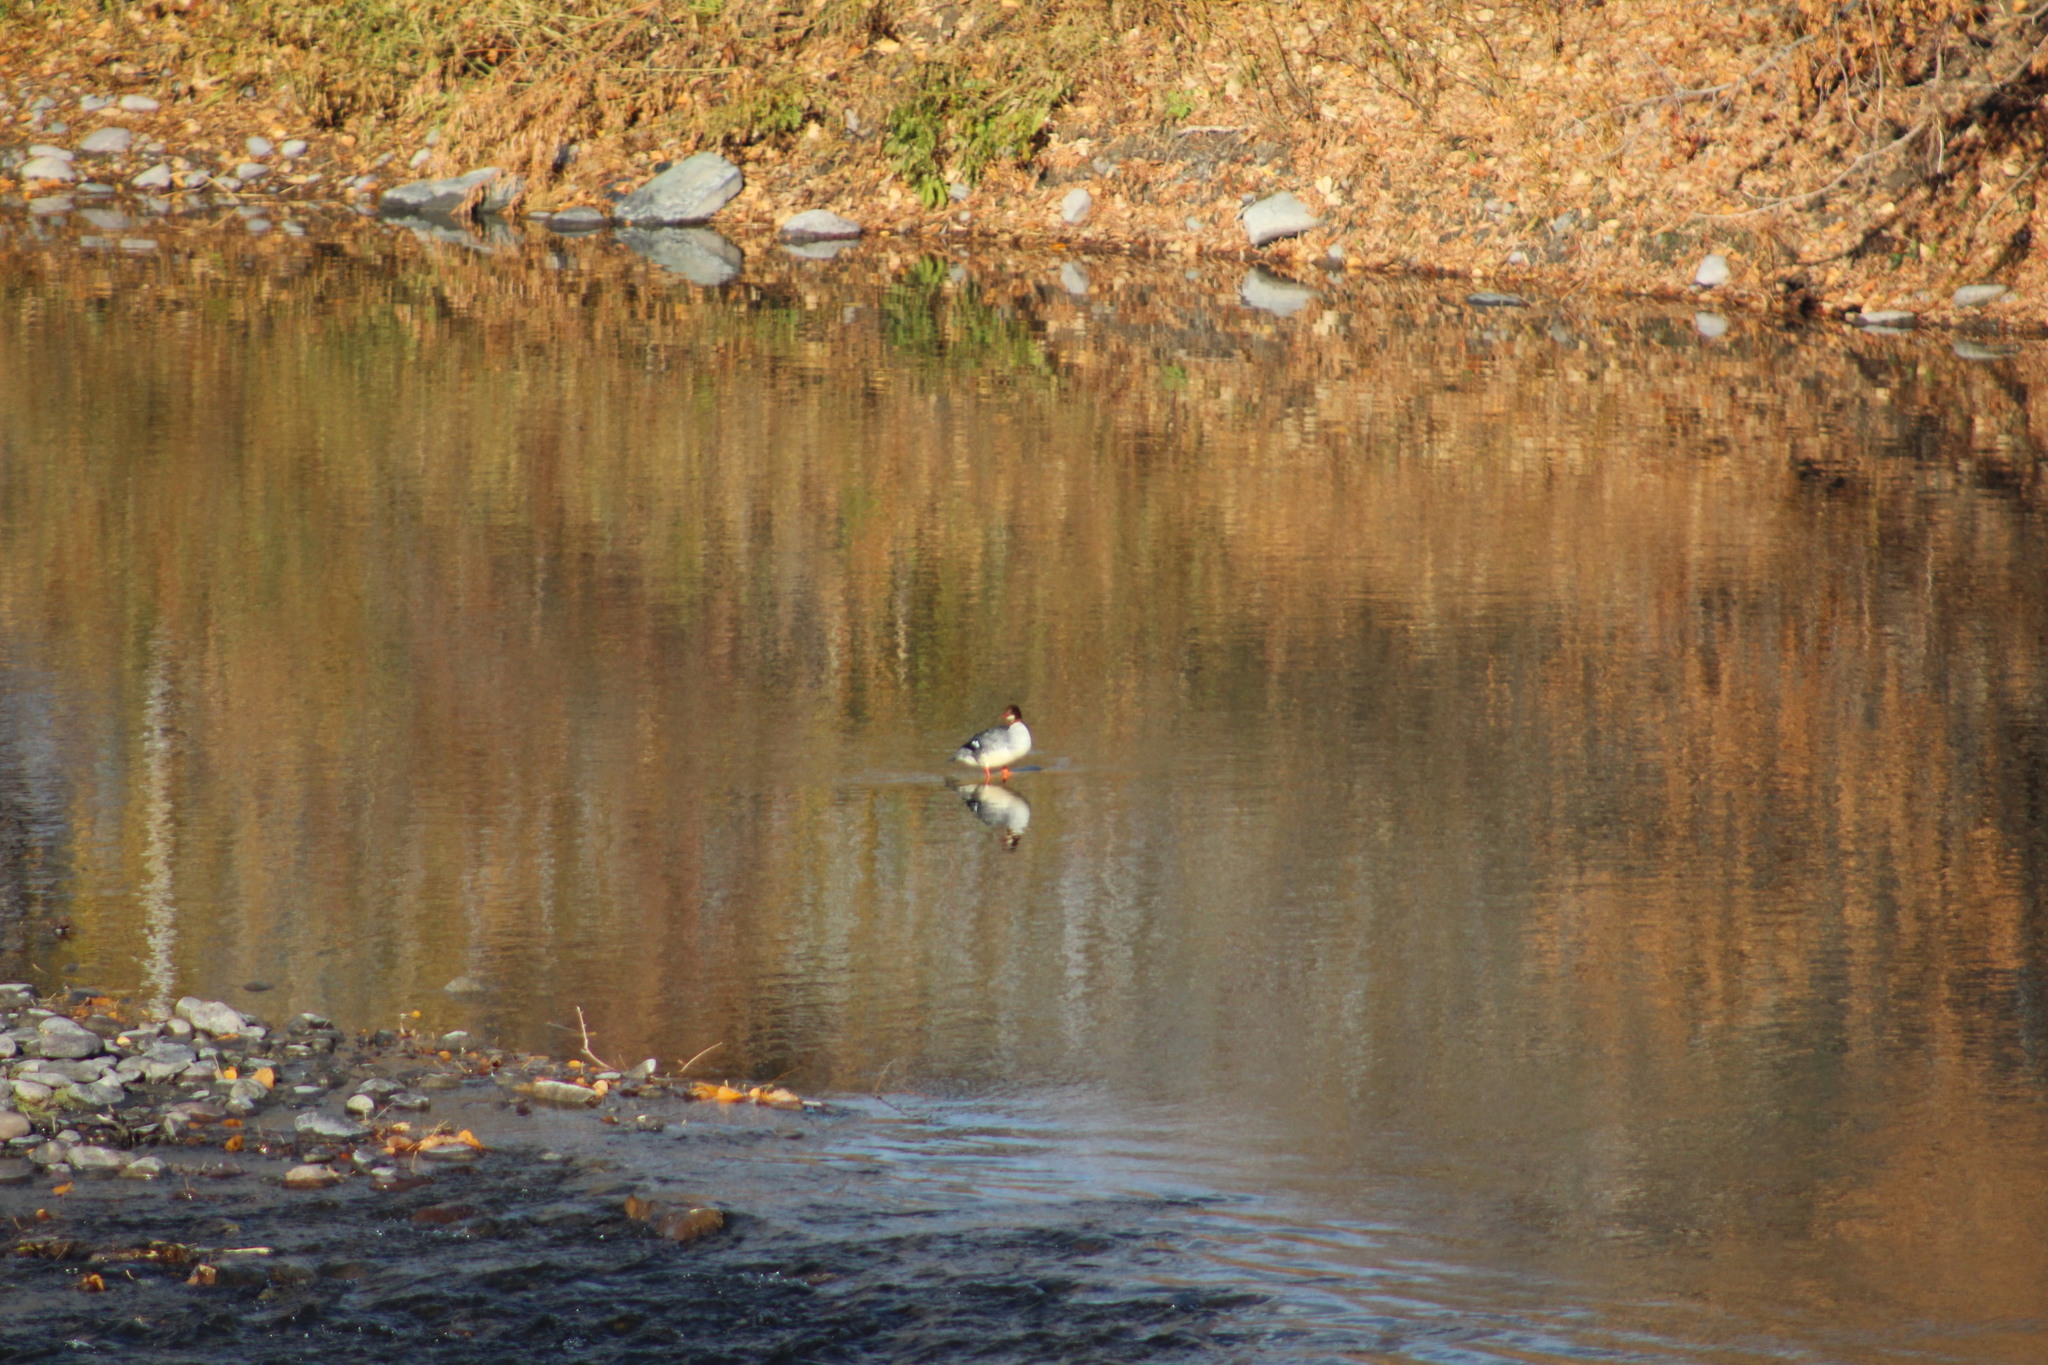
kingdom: Animalia
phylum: Chordata
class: Aves
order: Anseriformes
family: Anatidae
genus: Mergus
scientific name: Mergus merganser
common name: Common merganser
